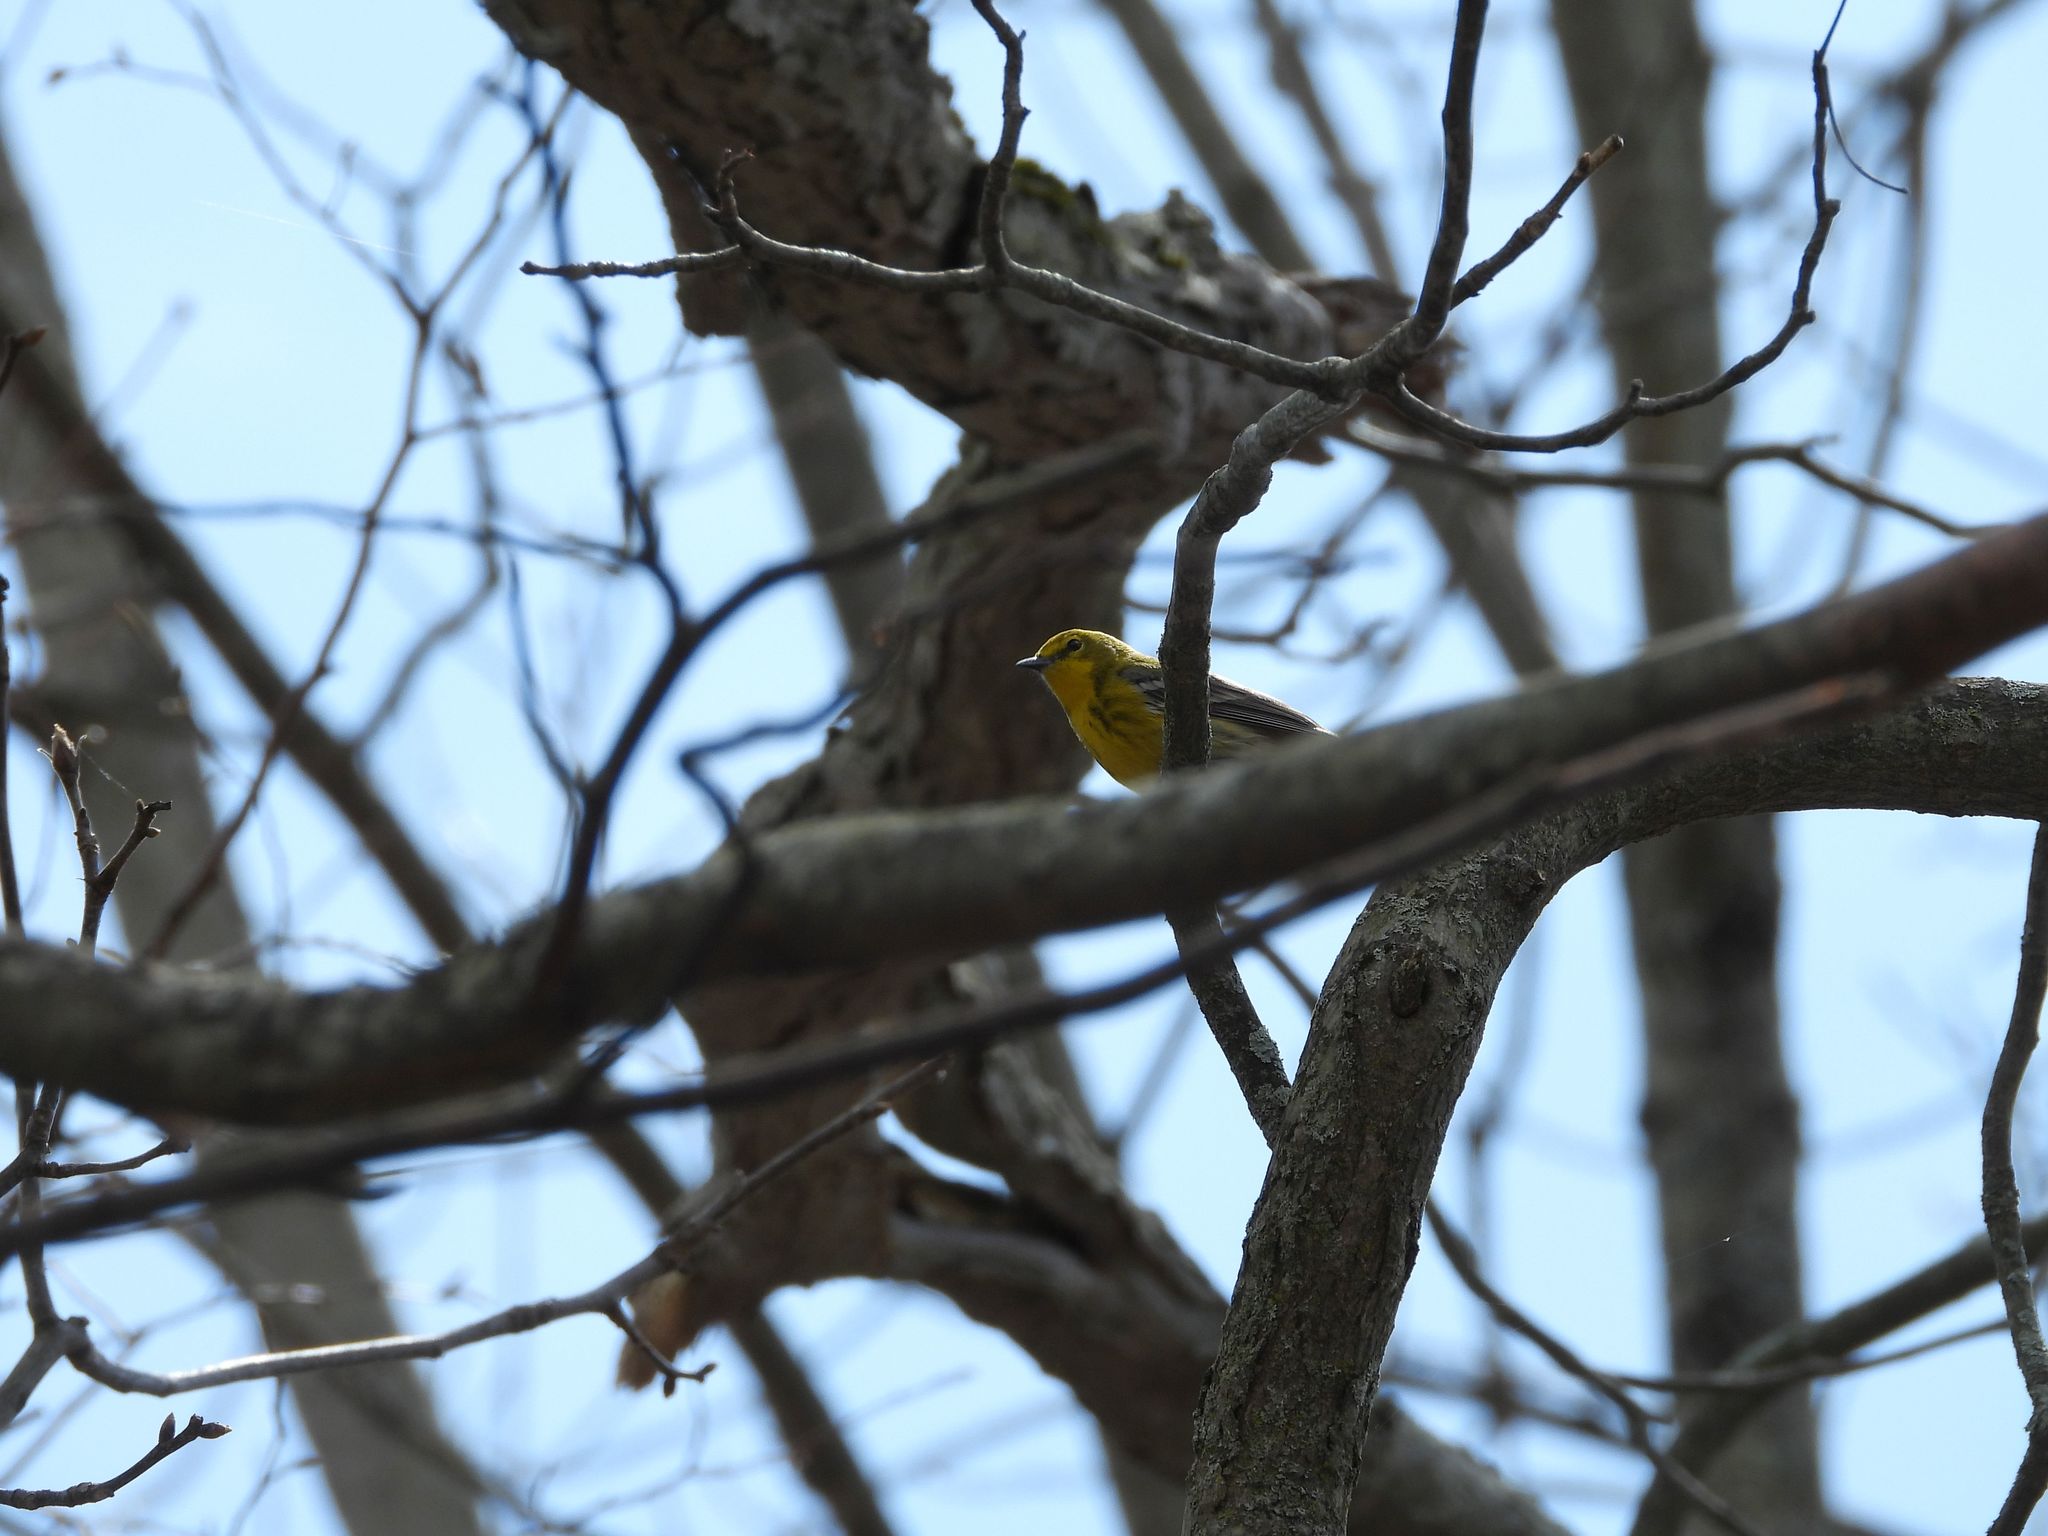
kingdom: Animalia
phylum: Chordata
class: Aves
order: Passeriformes
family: Parulidae
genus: Setophaga
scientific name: Setophaga pinus
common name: Pine warbler
